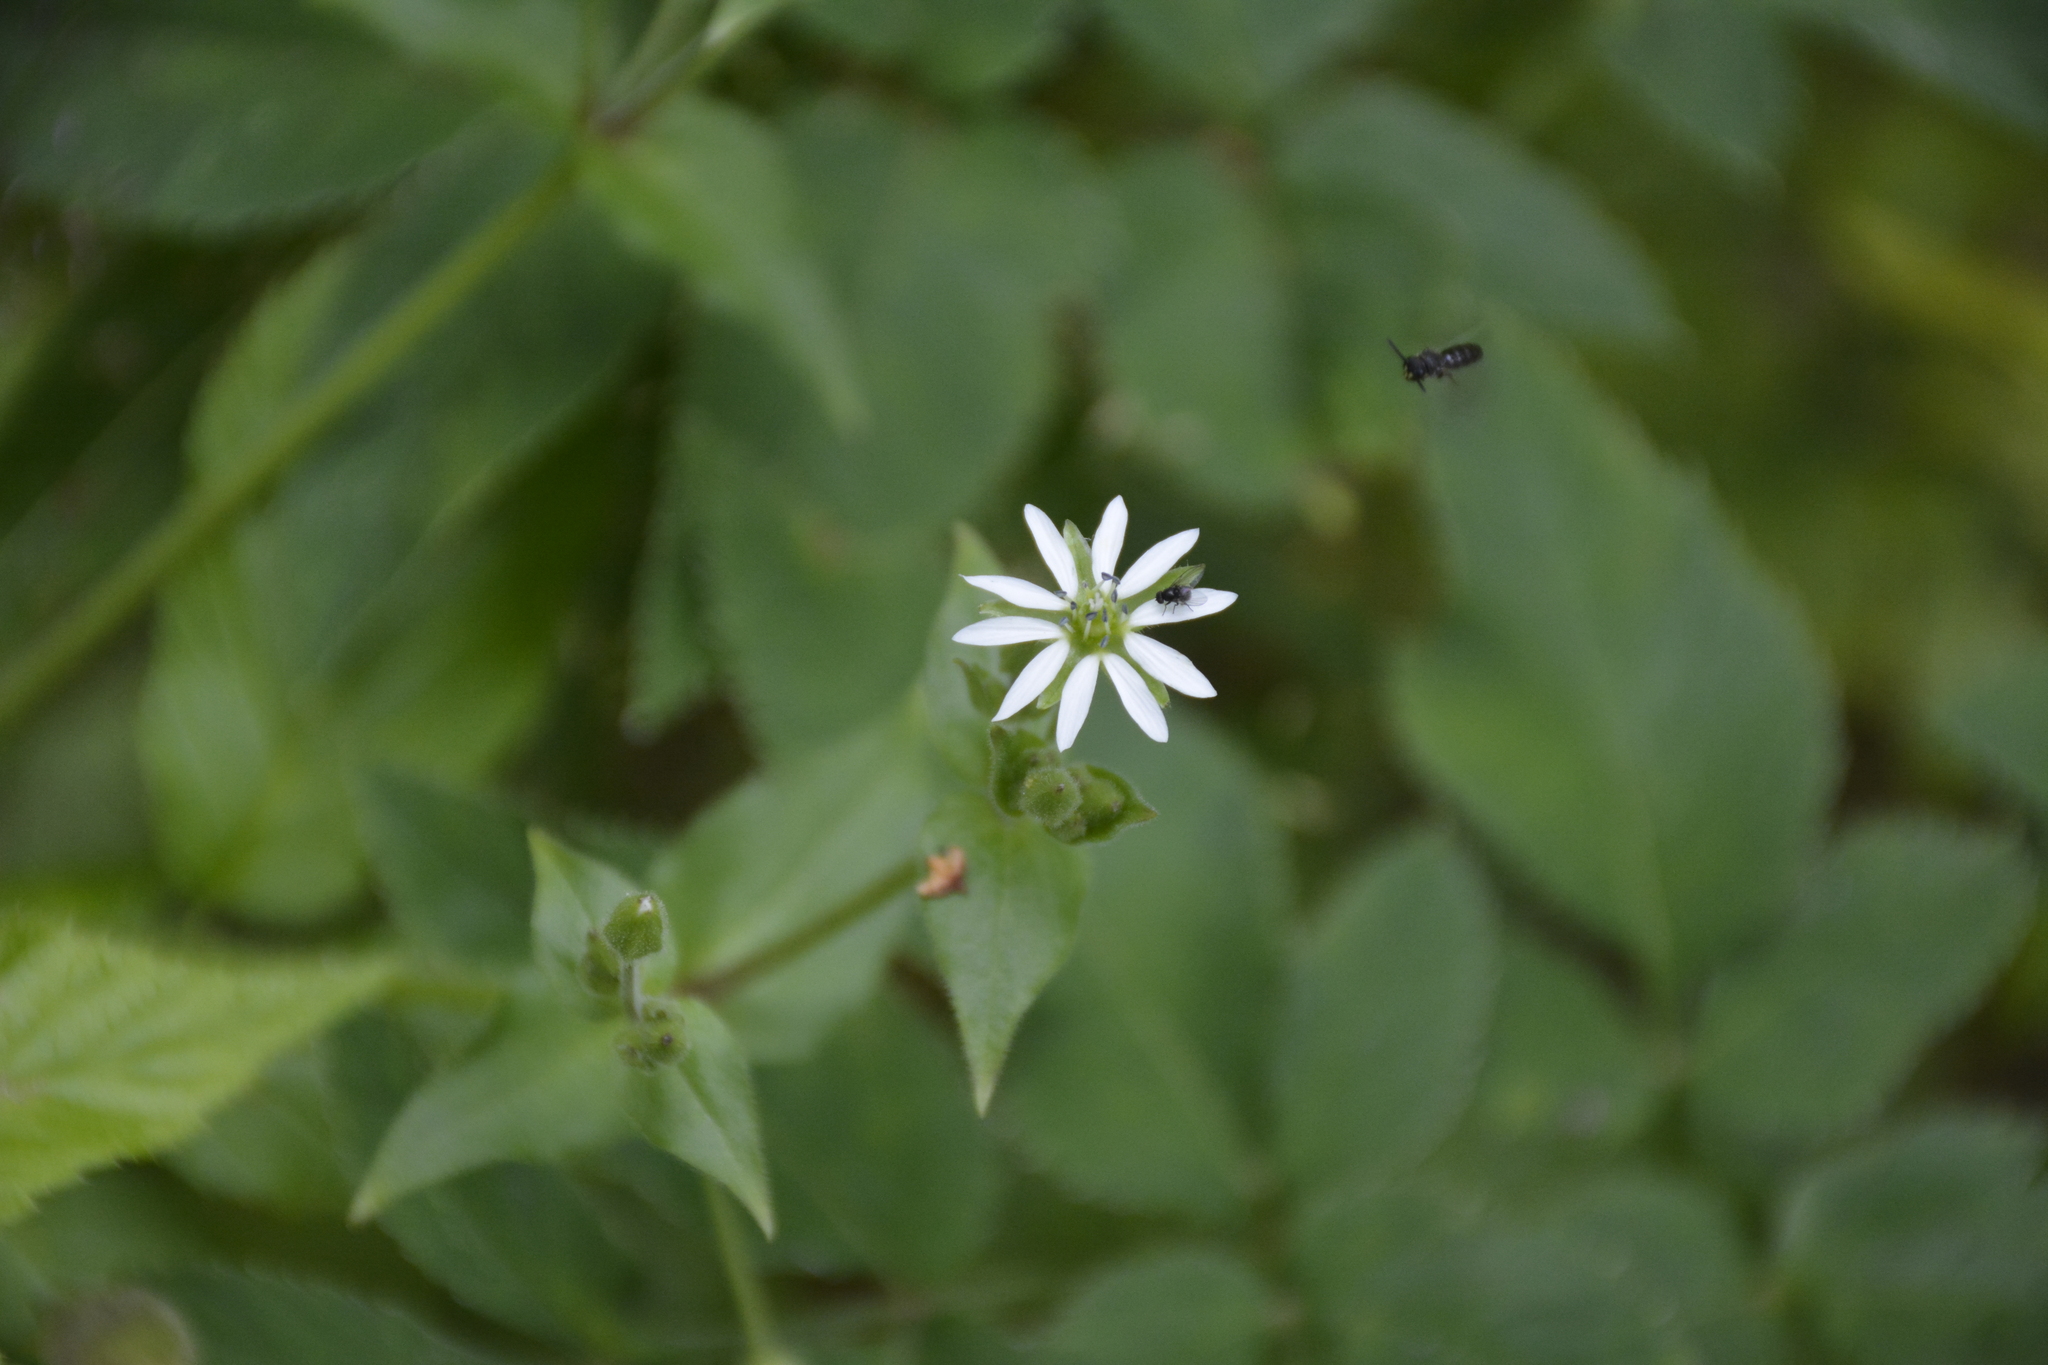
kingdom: Plantae
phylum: Tracheophyta
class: Magnoliopsida
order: Caryophyllales
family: Caryophyllaceae
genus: Stellaria
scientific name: Stellaria aquatica
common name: Water chickweed
